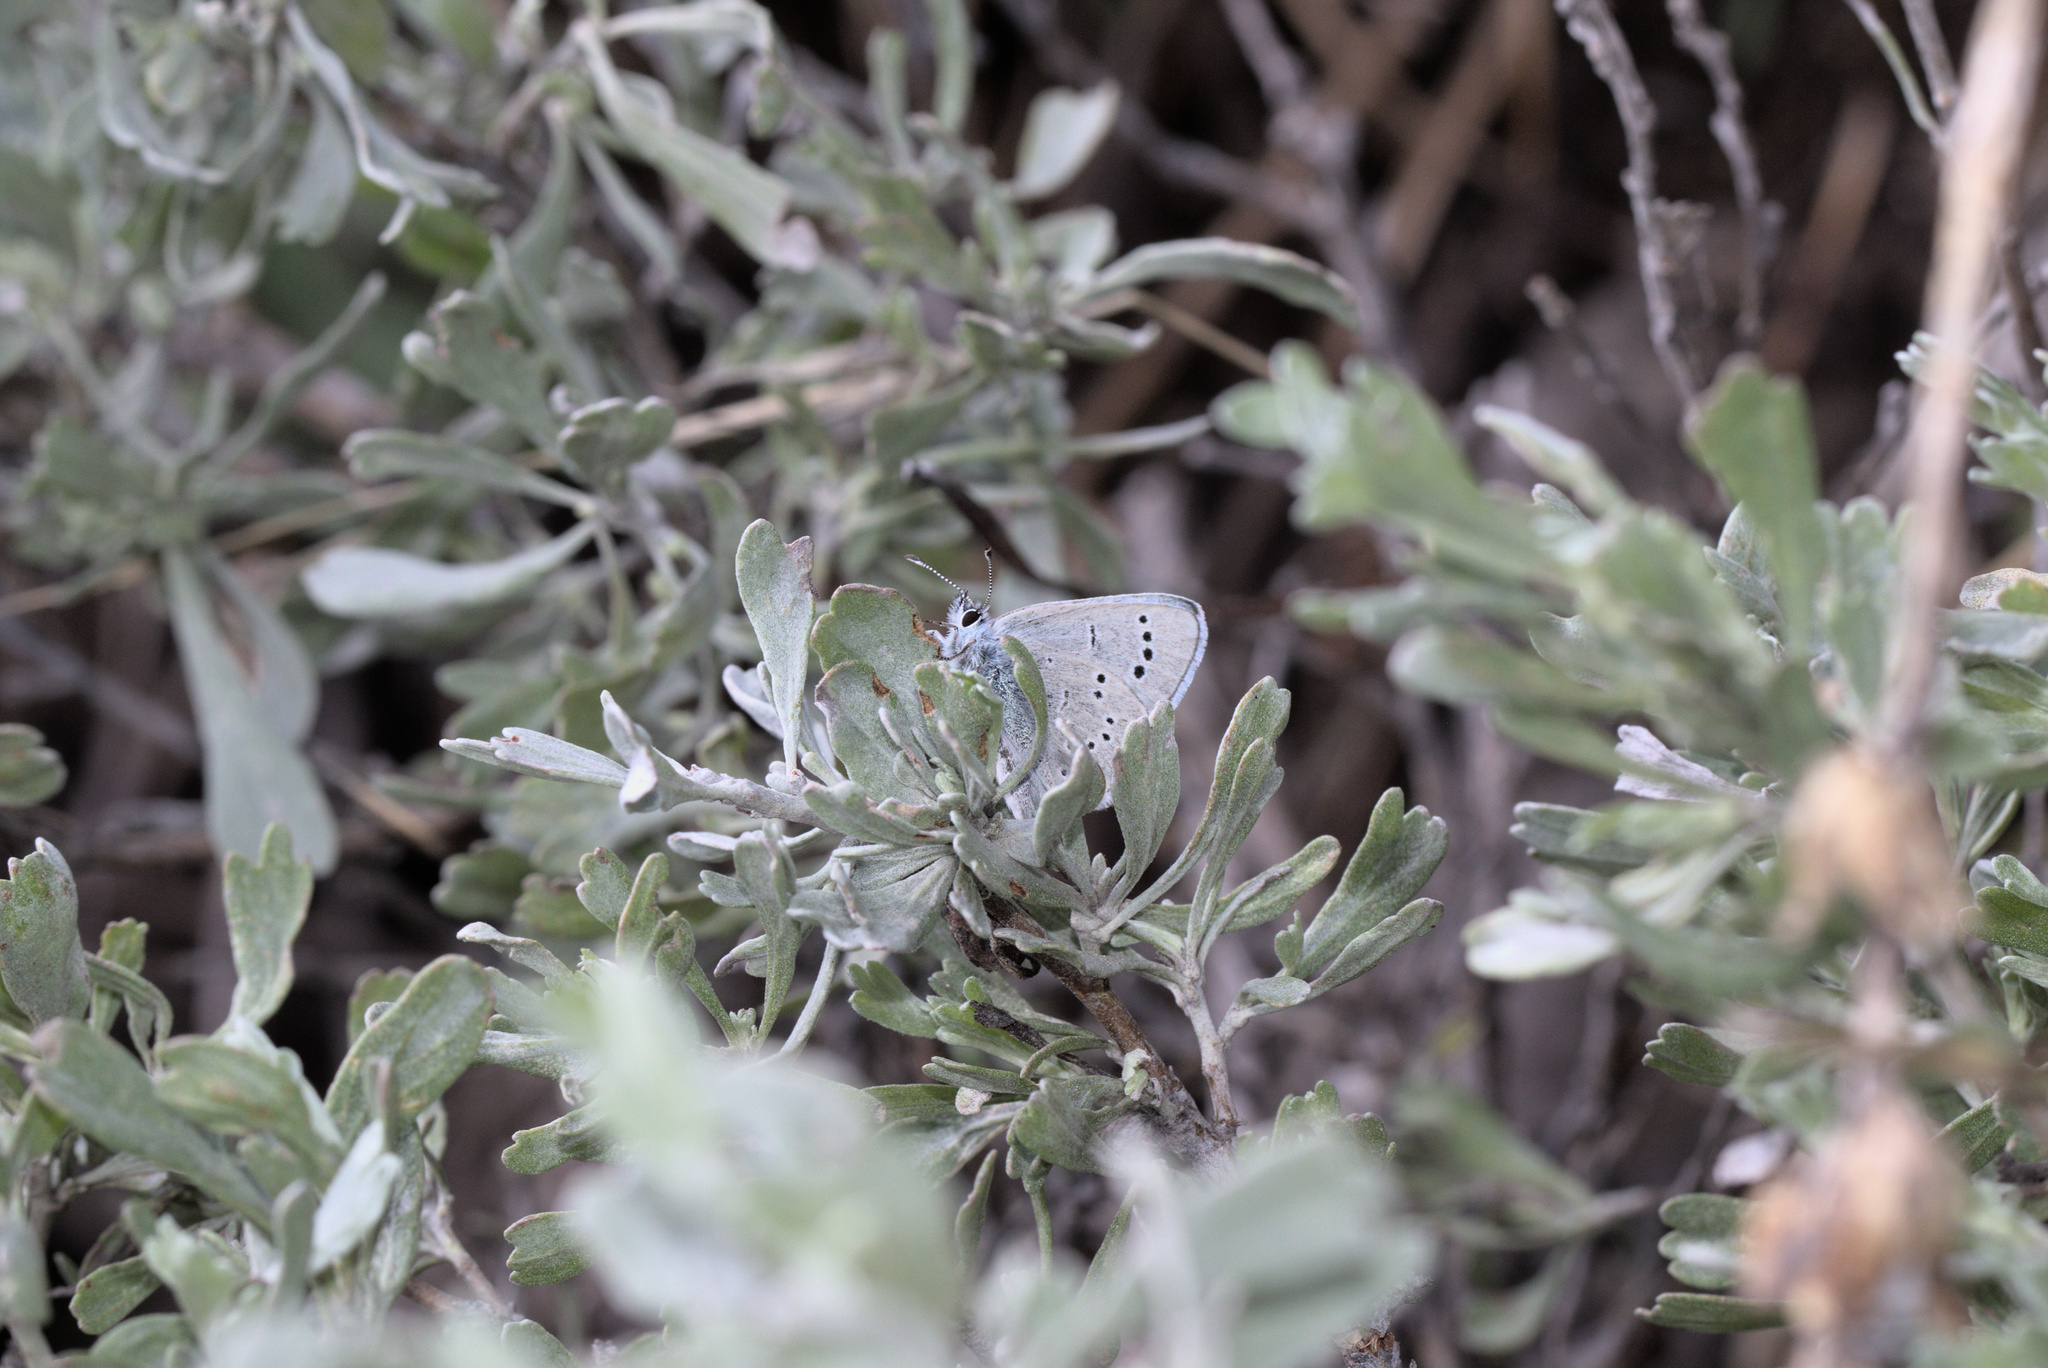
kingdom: Animalia
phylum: Arthropoda
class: Insecta
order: Lepidoptera
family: Lycaenidae
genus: Glaucopsyche
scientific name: Glaucopsyche lygdamus
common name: Silvery blue
